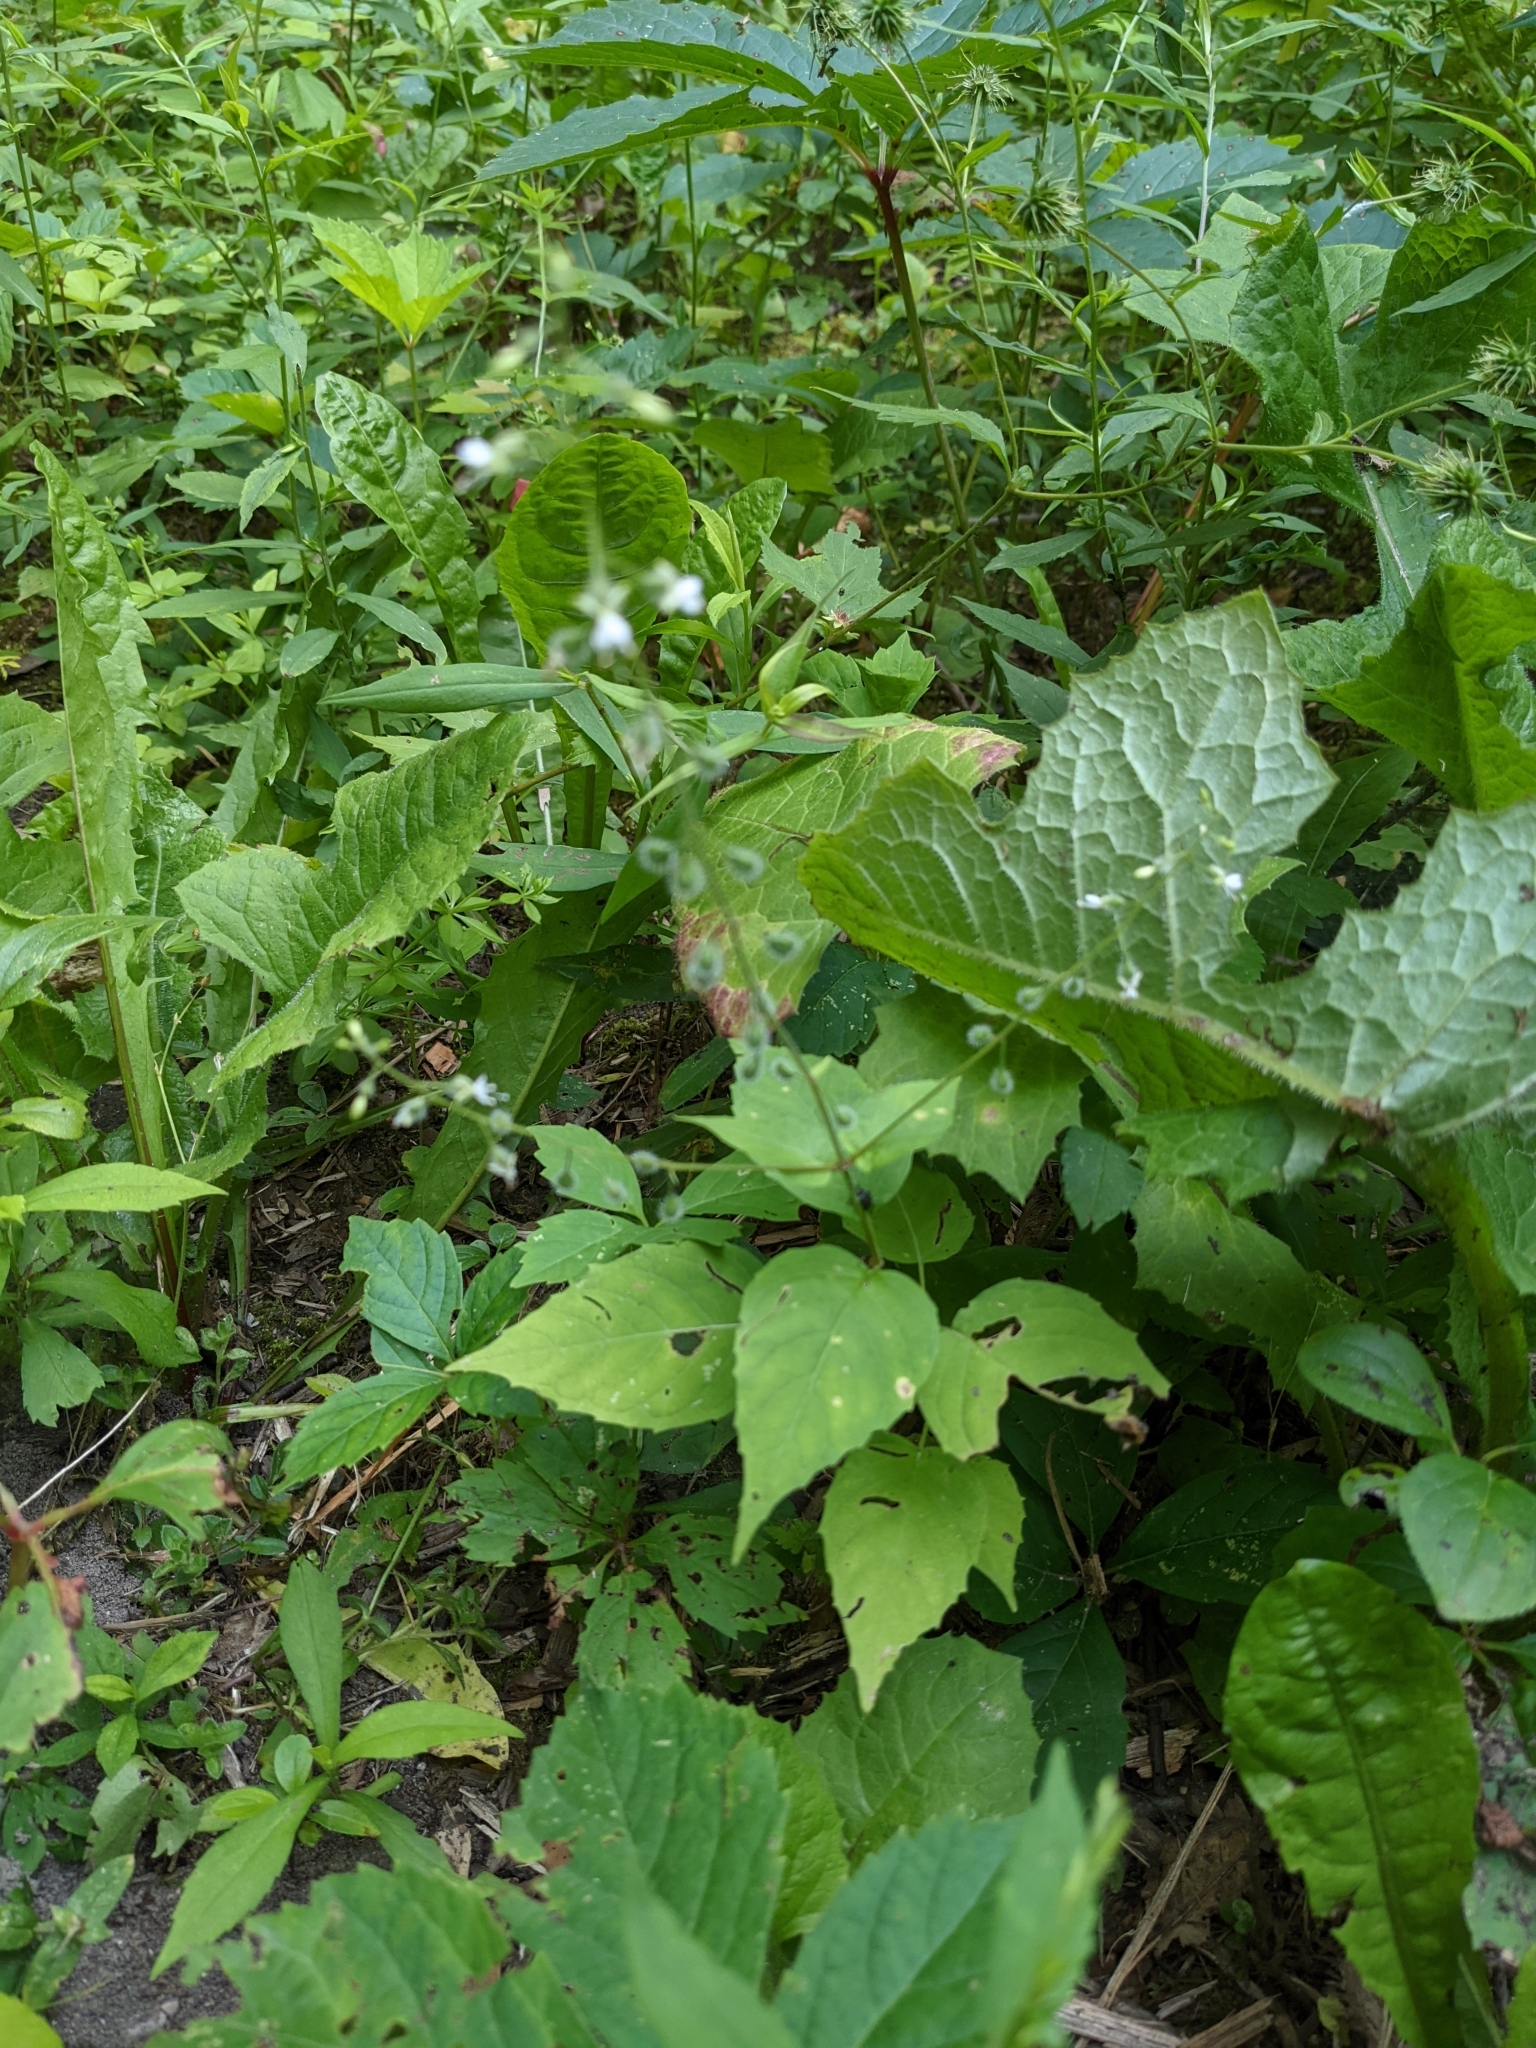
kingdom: Plantae
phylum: Tracheophyta
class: Magnoliopsida
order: Myrtales
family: Onagraceae
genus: Circaea
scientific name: Circaea canadensis
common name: Broad-leaved enchanter's nightshade
